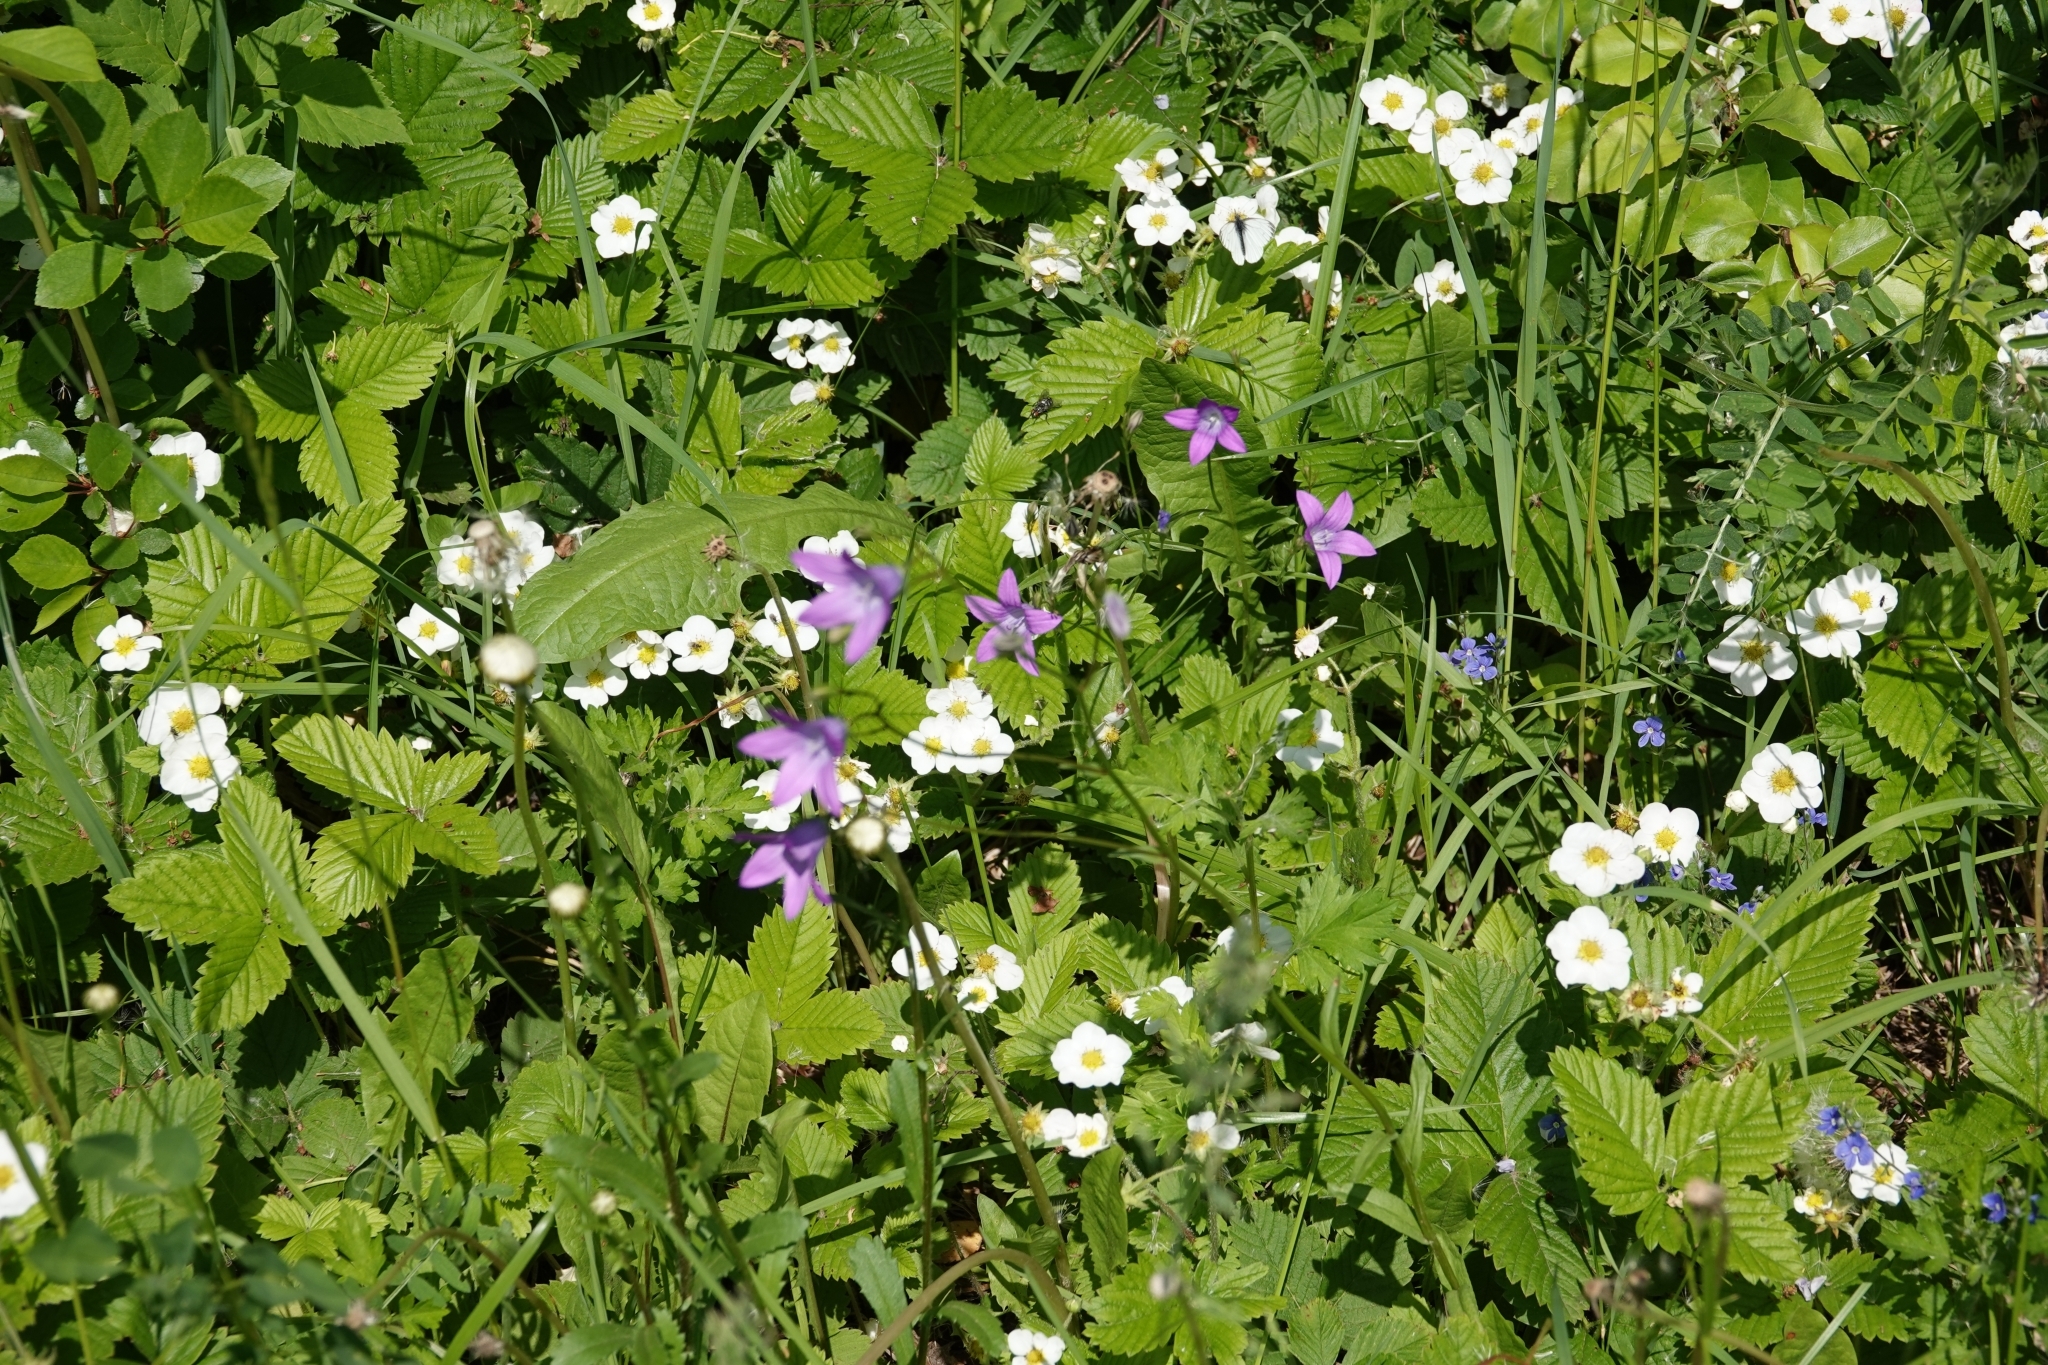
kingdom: Plantae
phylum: Tracheophyta
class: Magnoliopsida
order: Asterales
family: Campanulaceae
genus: Campanula
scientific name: Campanula patula
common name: Spreading bellflower
